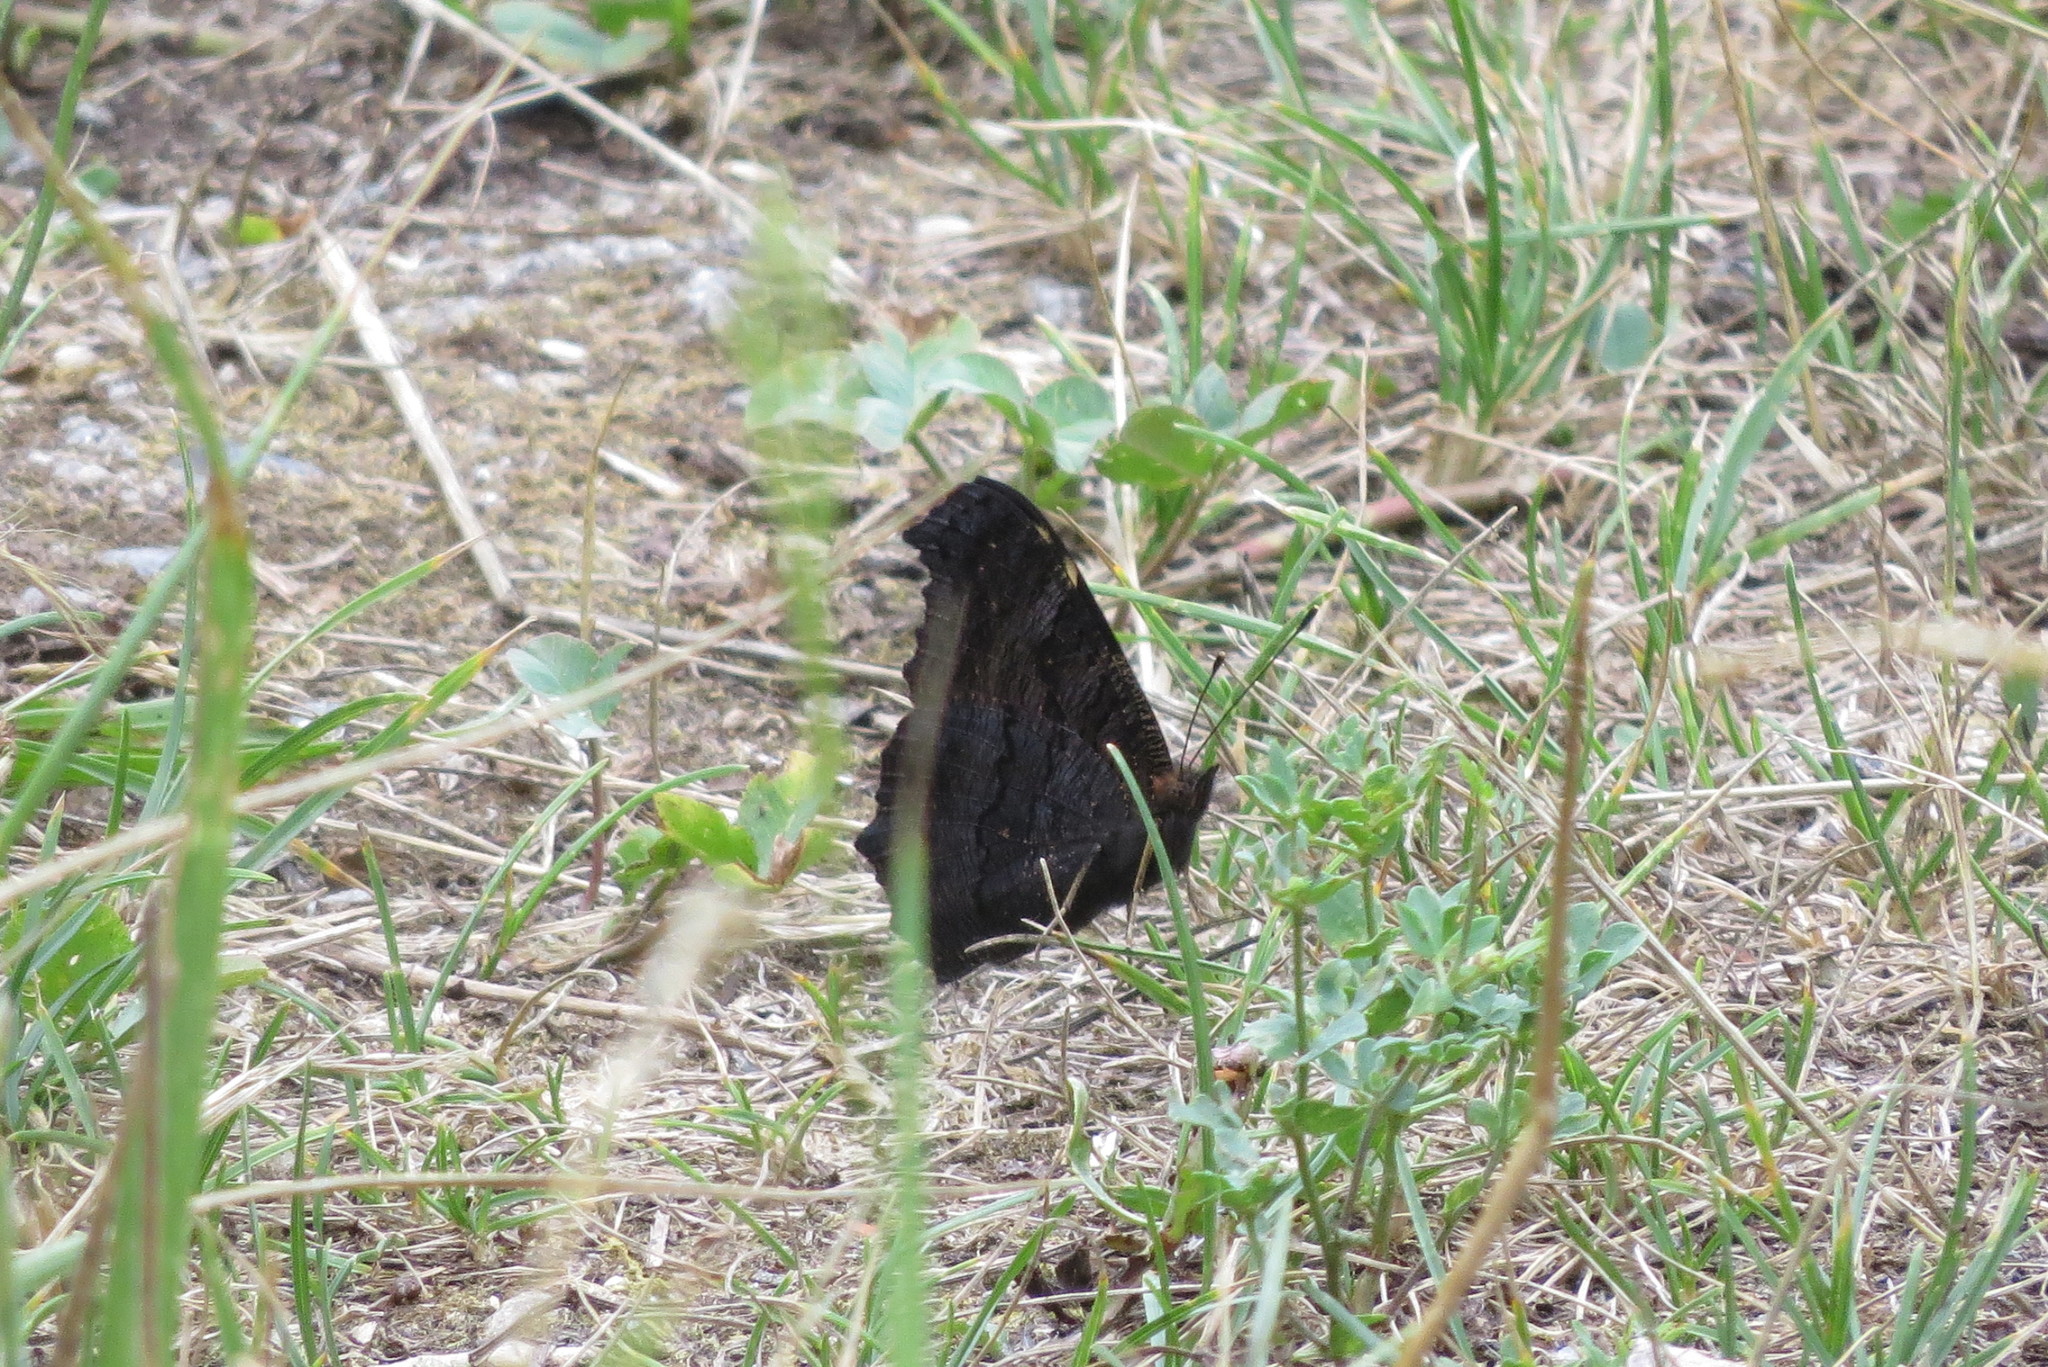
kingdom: Animalia
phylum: Arthropoda
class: Insecta
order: Lepidoptera
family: Nymphalidae
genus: Aglais
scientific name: Aglais io
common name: Peacock
